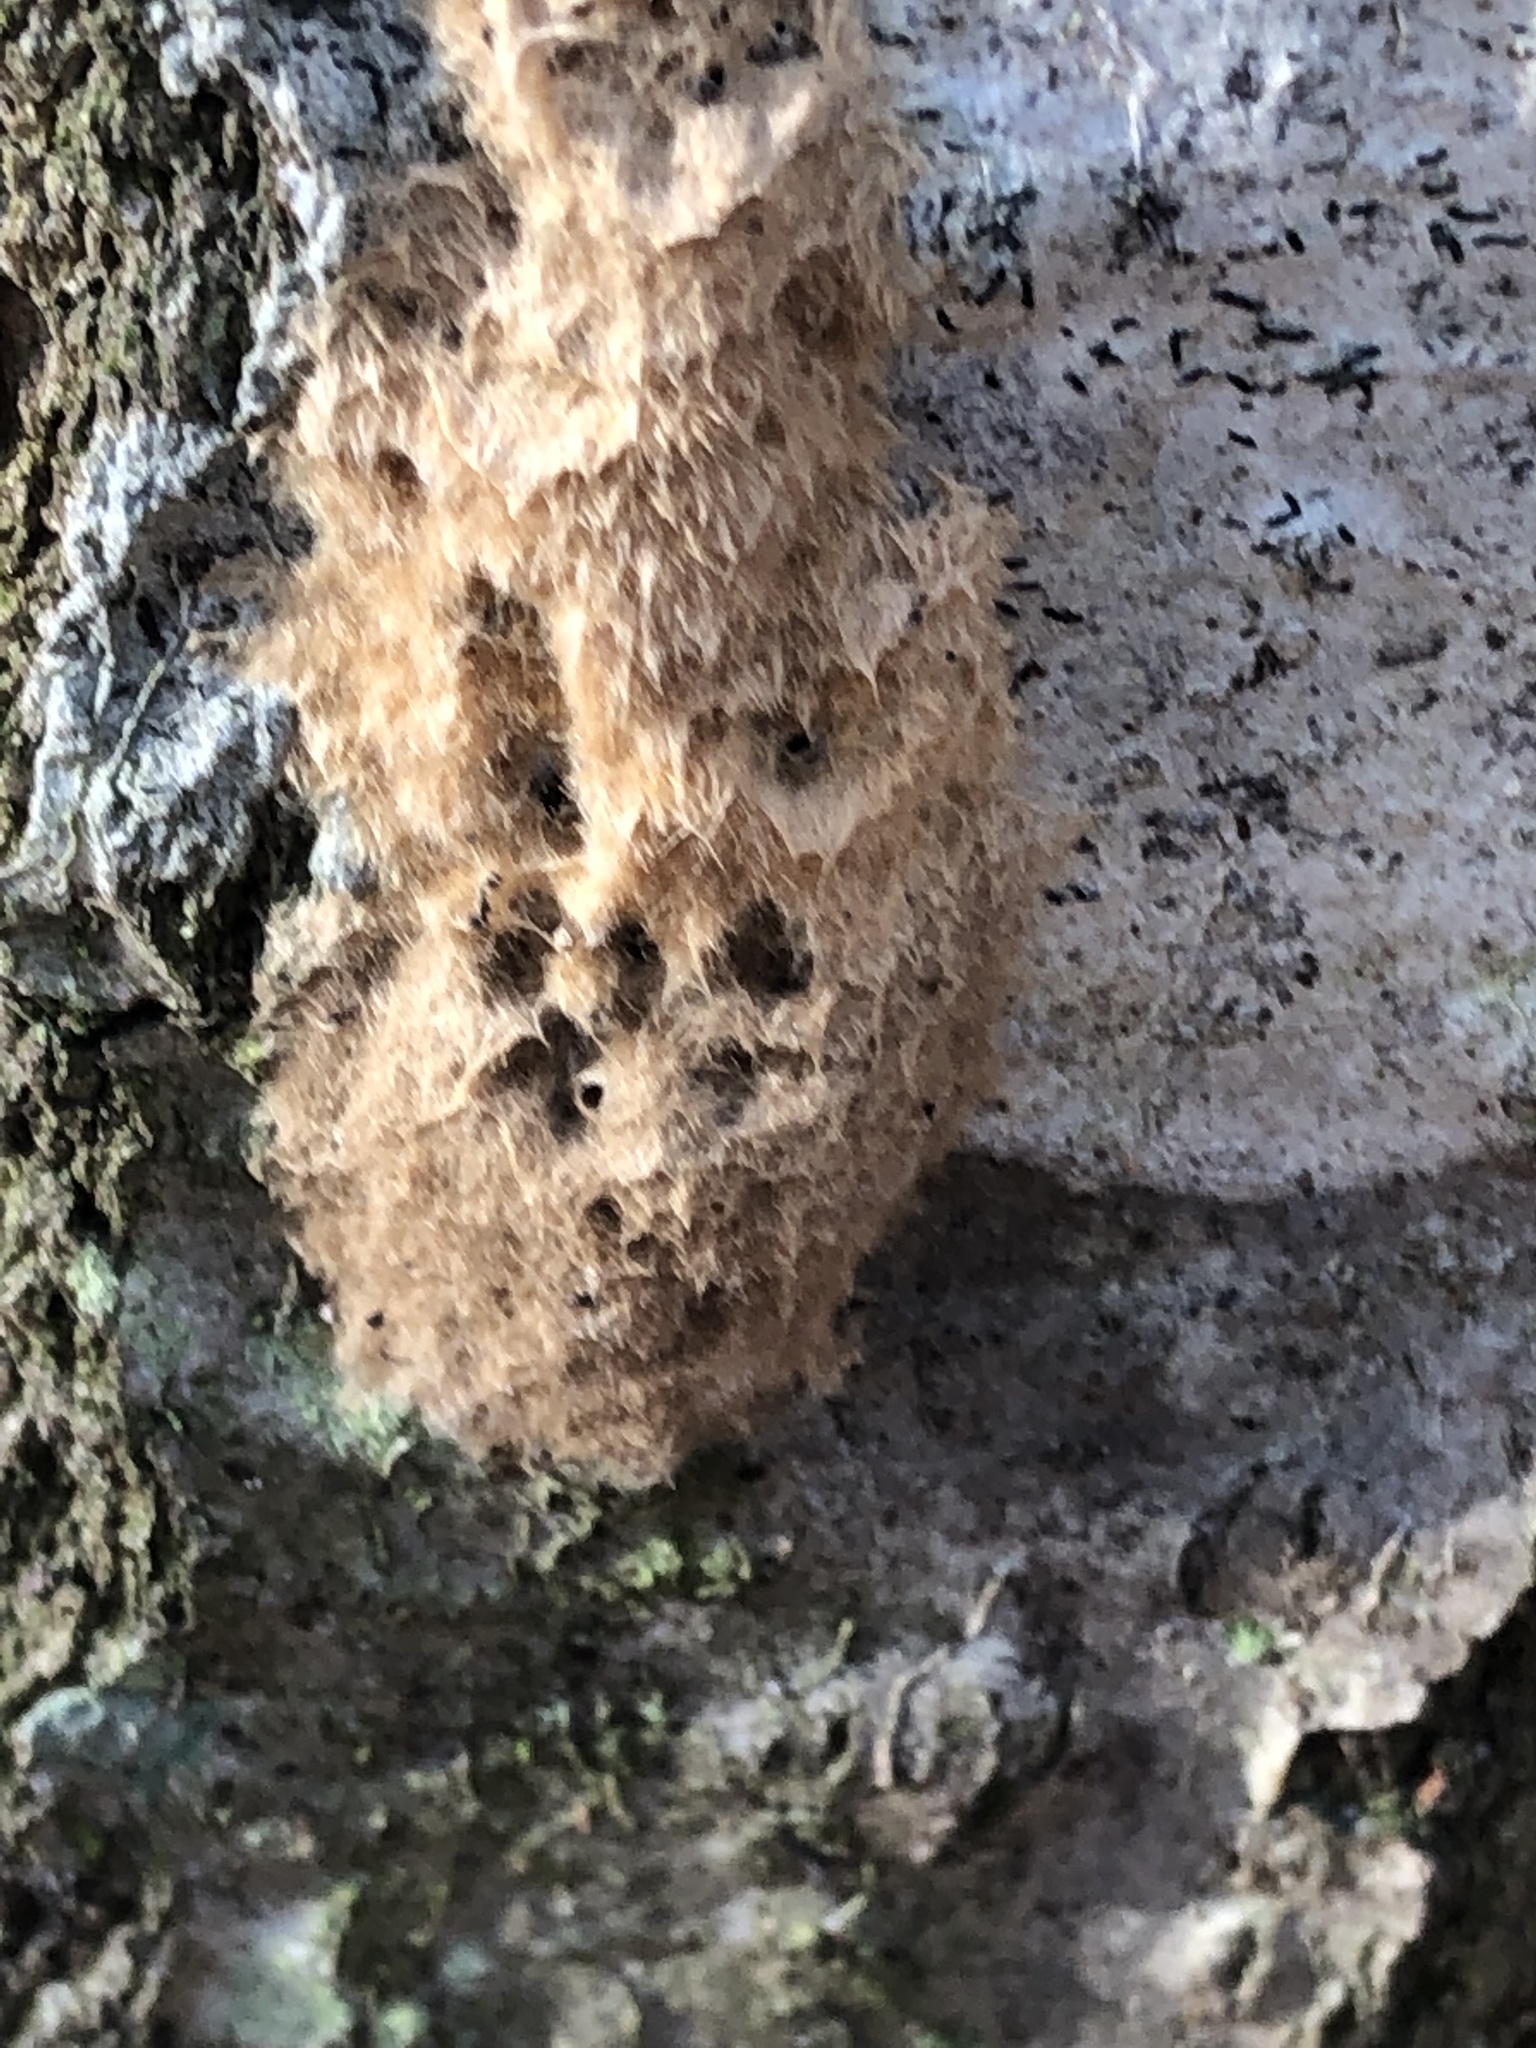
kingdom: Animalia
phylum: Arthropoda
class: Insecta
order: Lepidoptera
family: Erebidae
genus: Lymantria
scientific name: Lymantria dispar
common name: Gypsy moth
